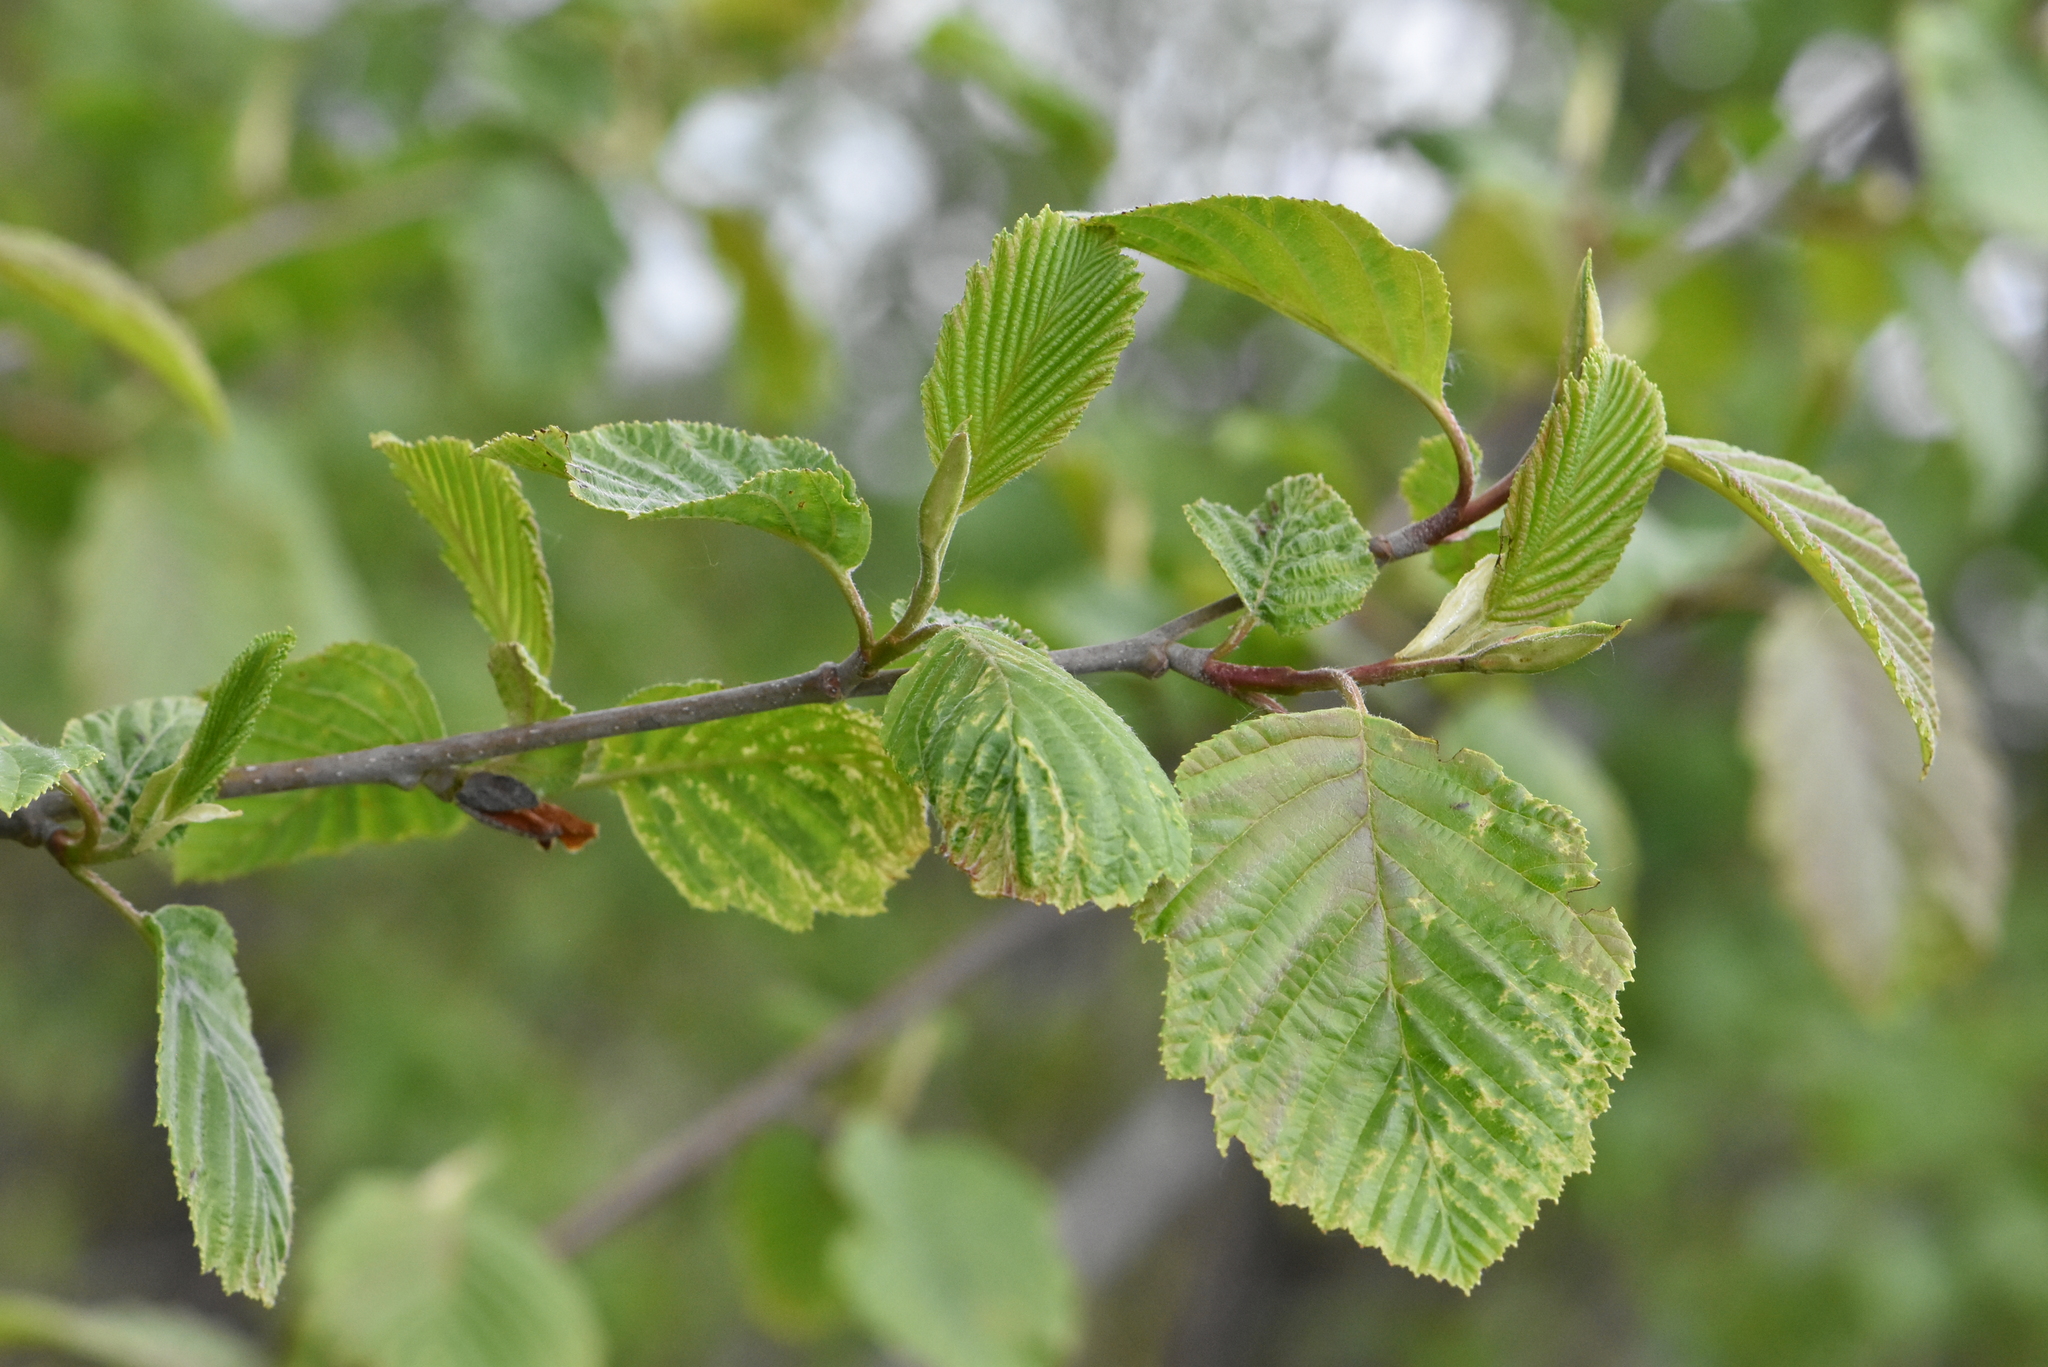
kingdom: Plantae
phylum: Tracheophyta
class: Magnoliopsida
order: Fagales
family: Betulaceae
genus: Alnus
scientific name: Alnus incana
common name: Grey alder
